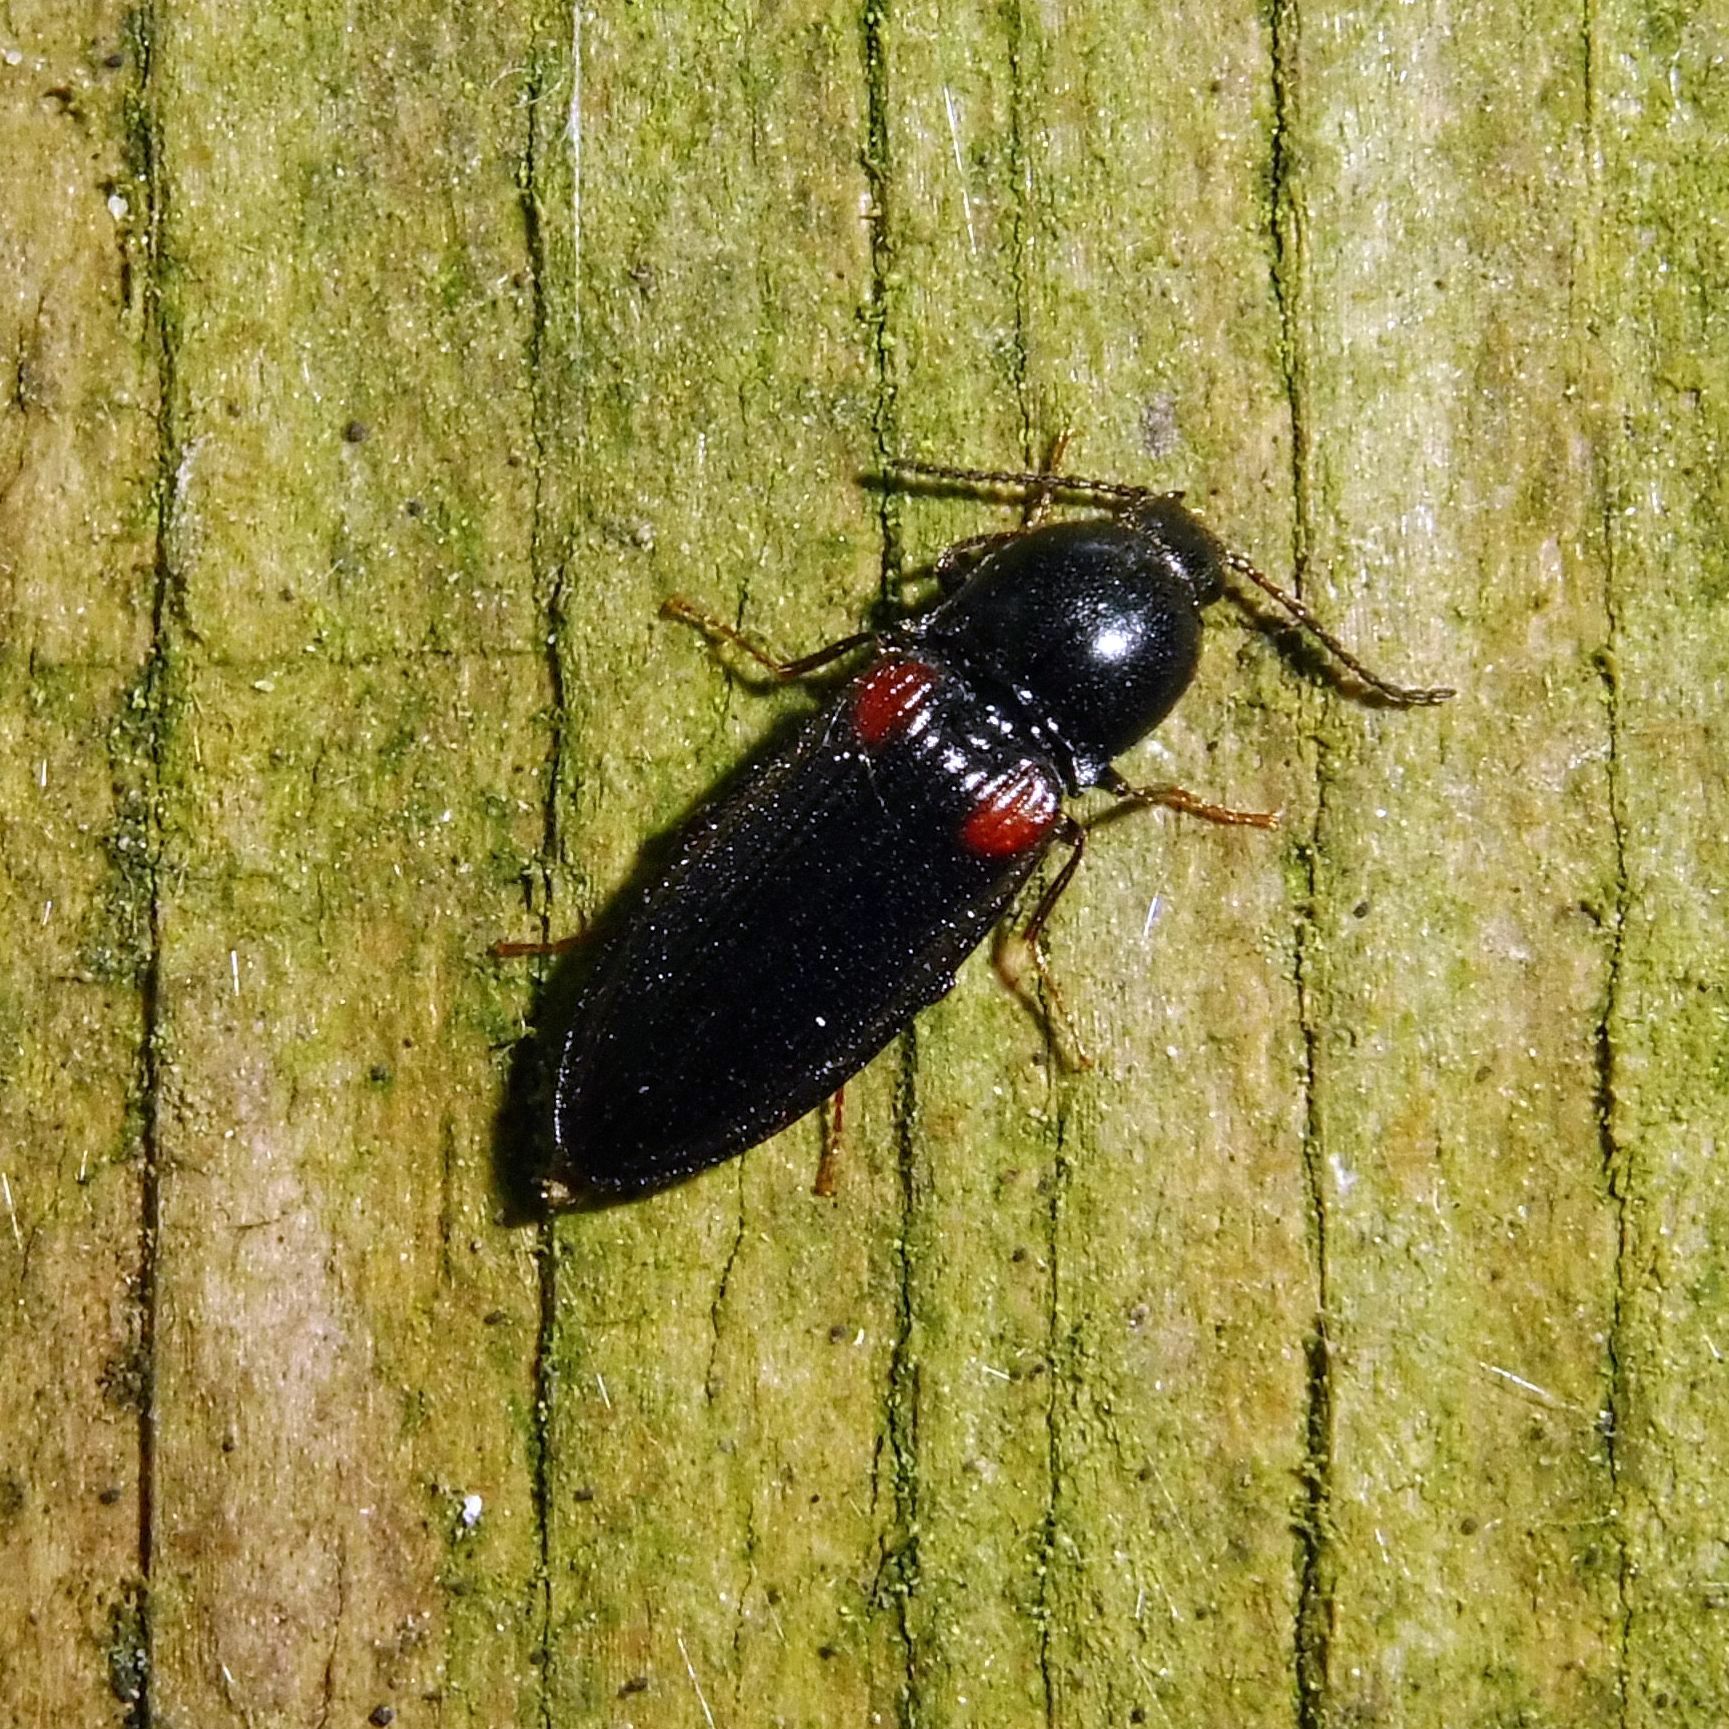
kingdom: Animalia
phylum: Arthropoda
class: Insecta
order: Coleoptera
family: Elateridae
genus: Calambus
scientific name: Calambus bipustulatus
